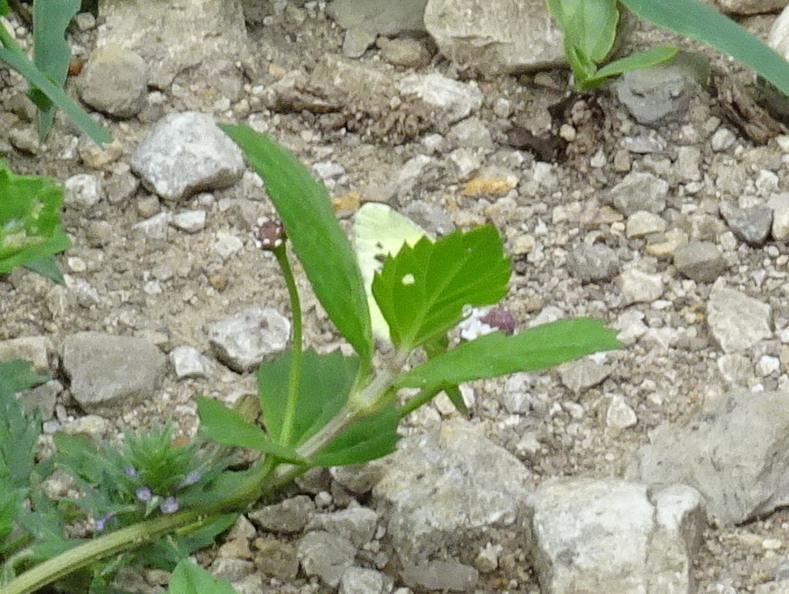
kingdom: Animalia
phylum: Arthropoda
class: Insecta
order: Lepidoptera
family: Pieridae
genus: Nathalis
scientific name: Nathalis iole
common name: Dainty sulphur
